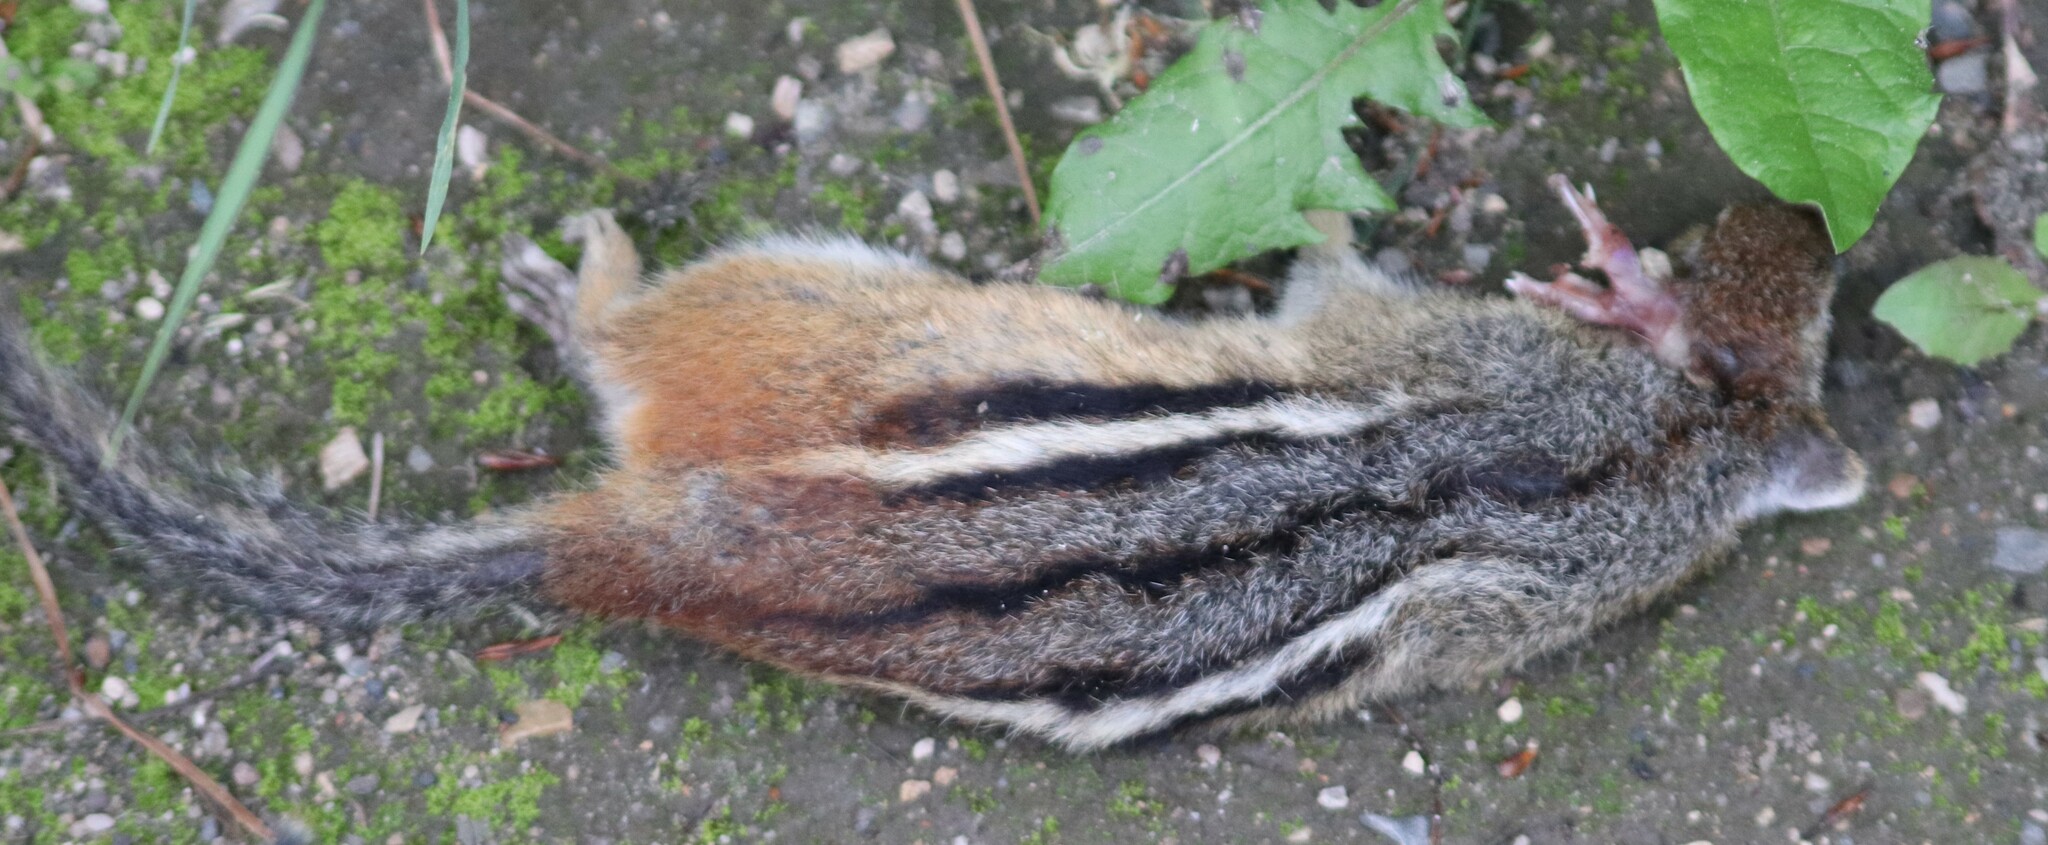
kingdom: Animalia
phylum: Chordata
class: Mammalia
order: Rodentia
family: Sciuridae
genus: Tamias
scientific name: Tamias striatus
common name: Eastern chipmunk
